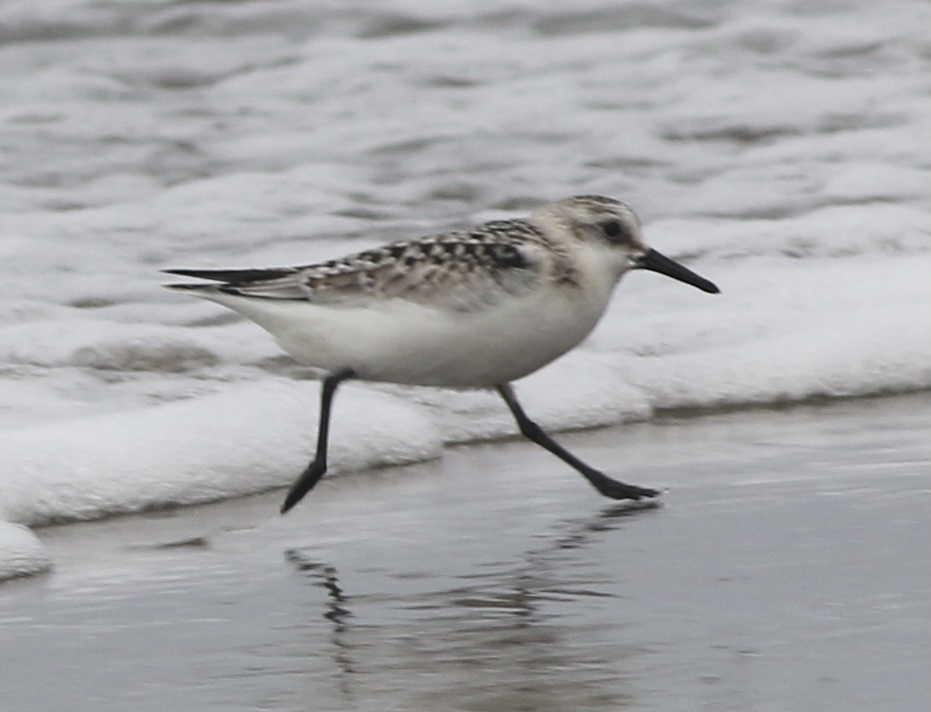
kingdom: Animalia
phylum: Chordata
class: Aves
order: Charadriiformes
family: Scolopacidae
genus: Calidris
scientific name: Calidris alba
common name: Sanderling
